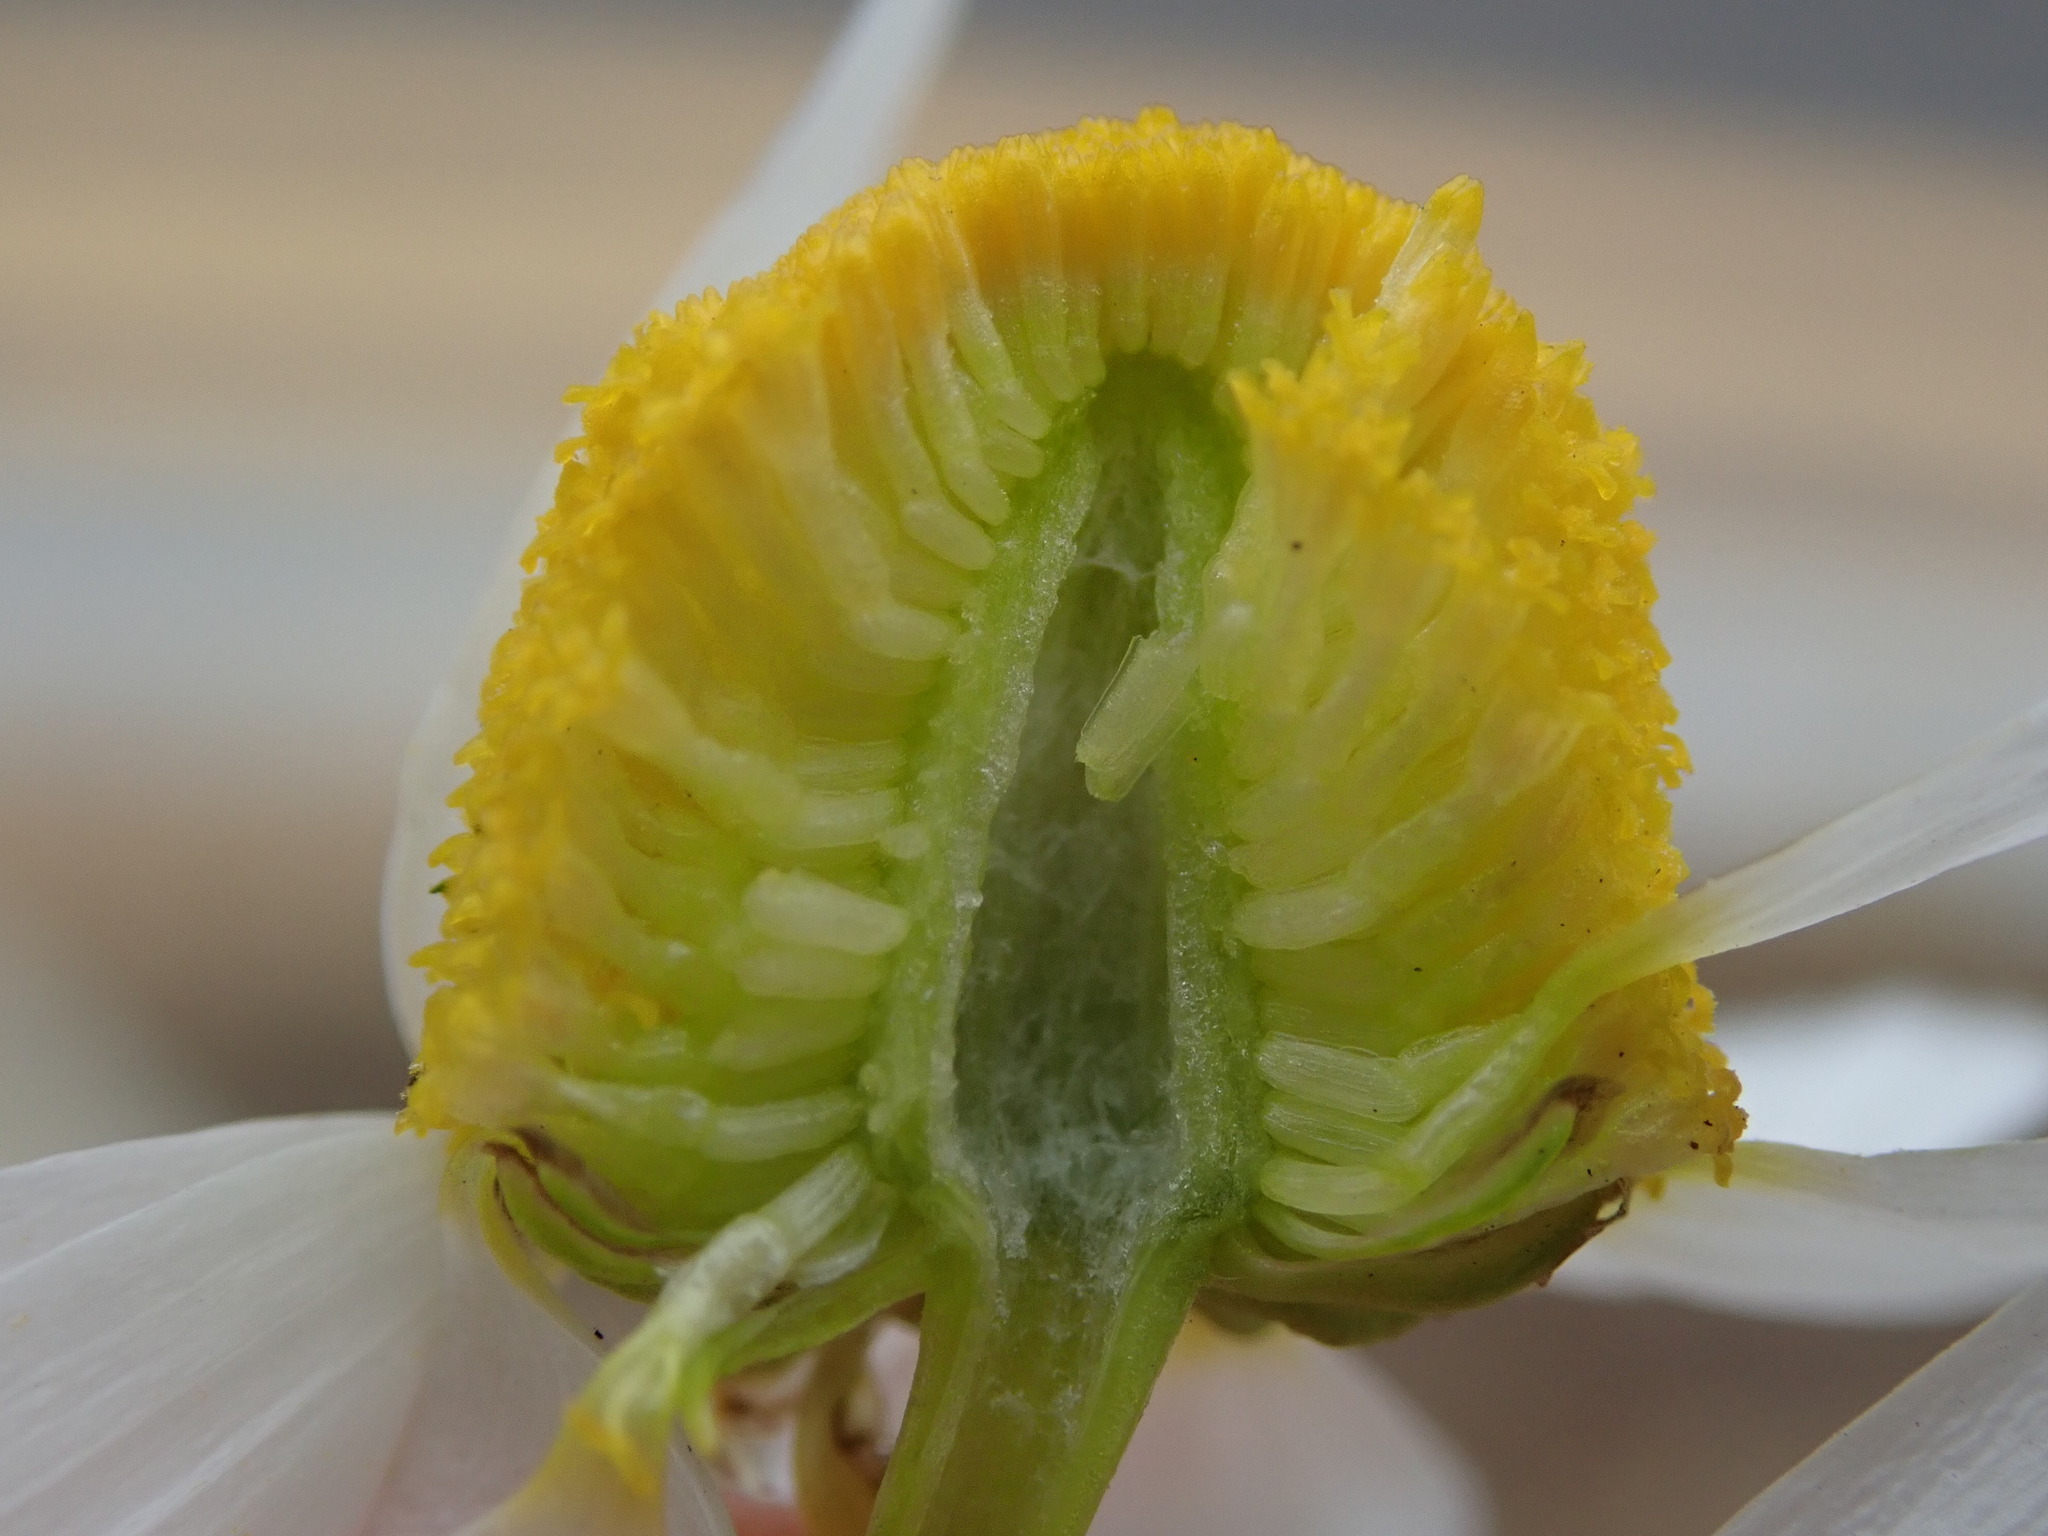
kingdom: Plantae
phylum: Tracheophyta
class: Magnoliopsida
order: Asterales
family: Asteraceae
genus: Matricaria
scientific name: Matricaria chamomilla
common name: Scented mayweed
